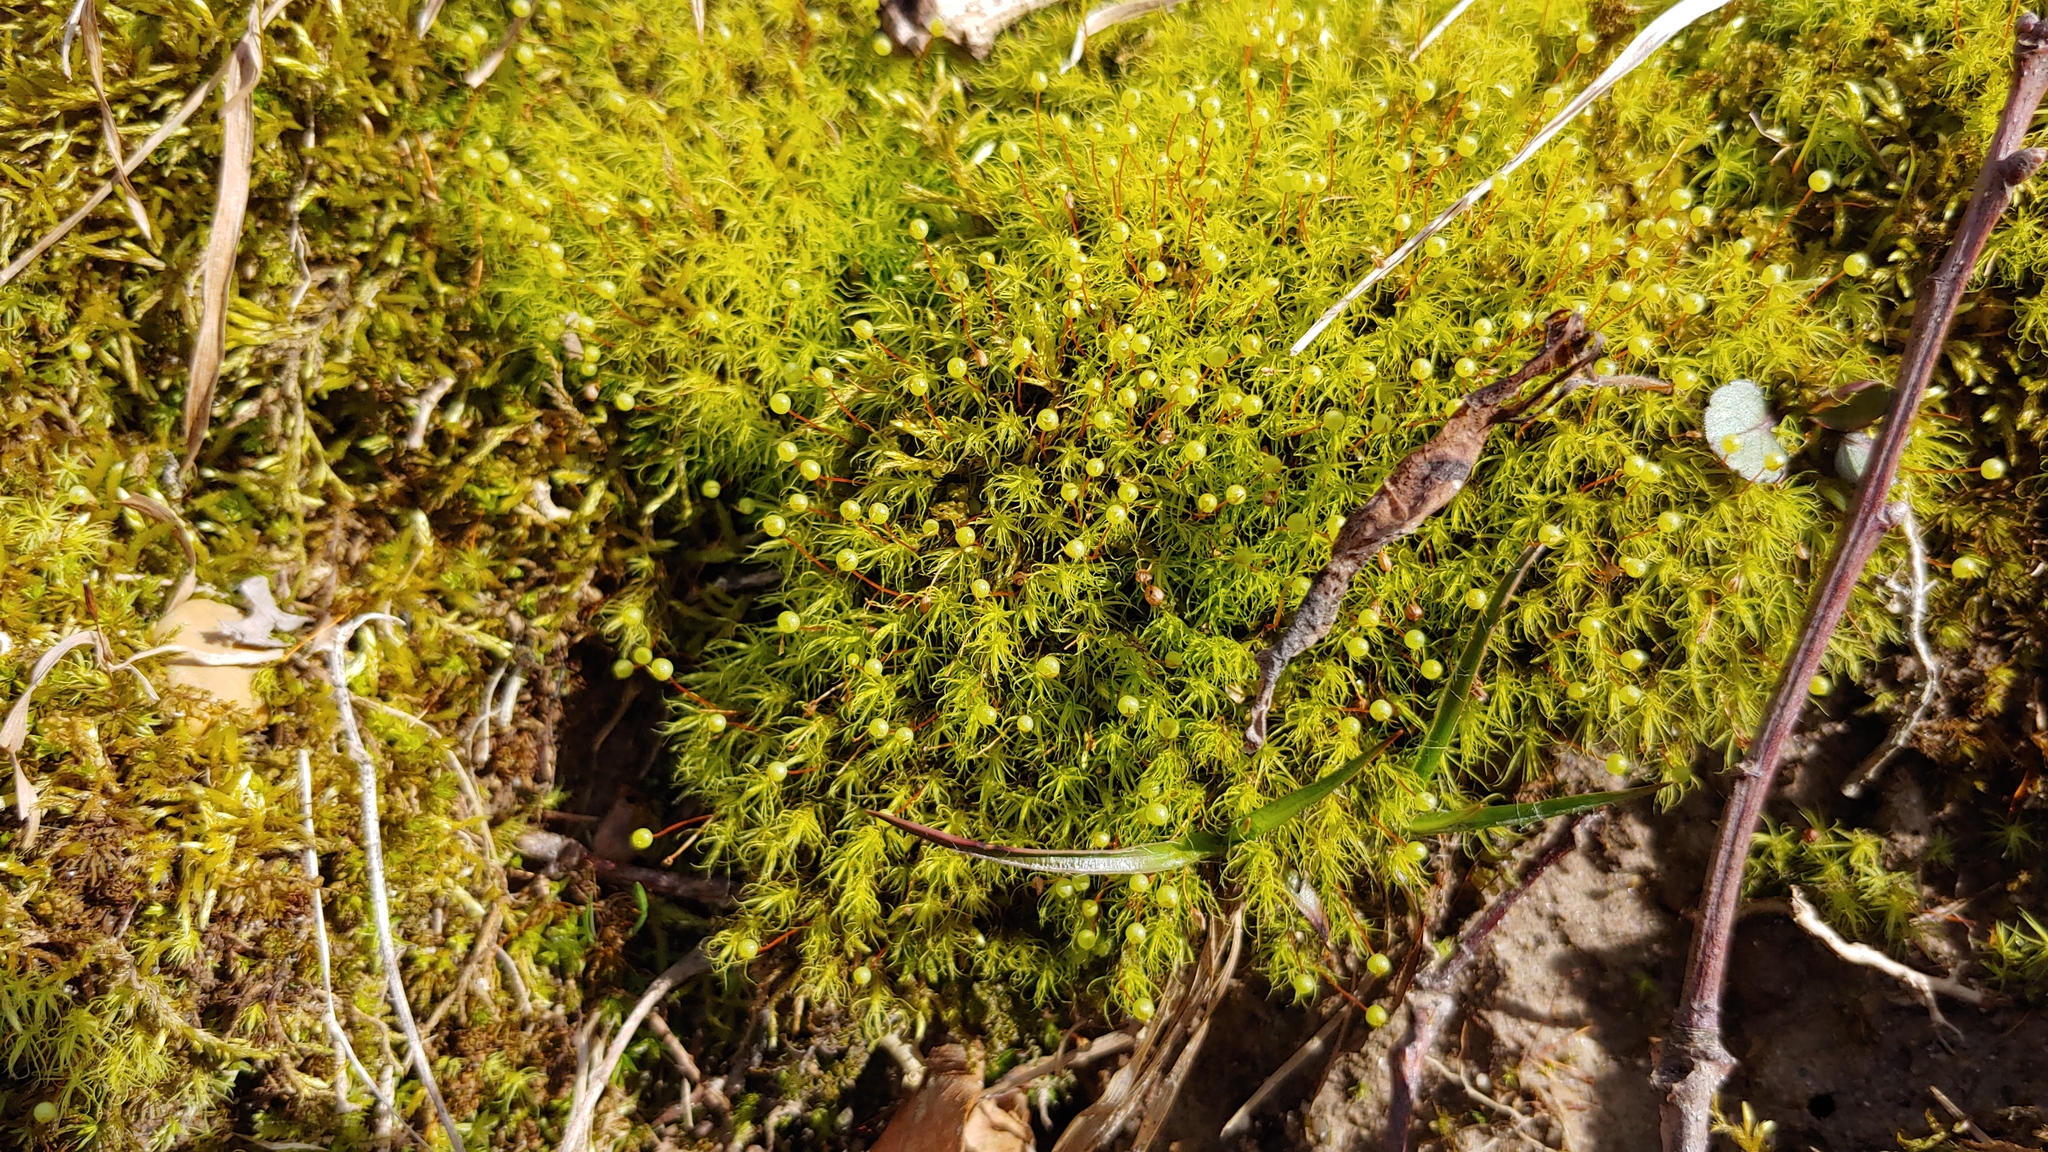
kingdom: Plantae
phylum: Bryophyta
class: Bryopsida
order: Bartramiales
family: Bartramiaceae
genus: Bartramia
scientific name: Bartramia ithyphylla
